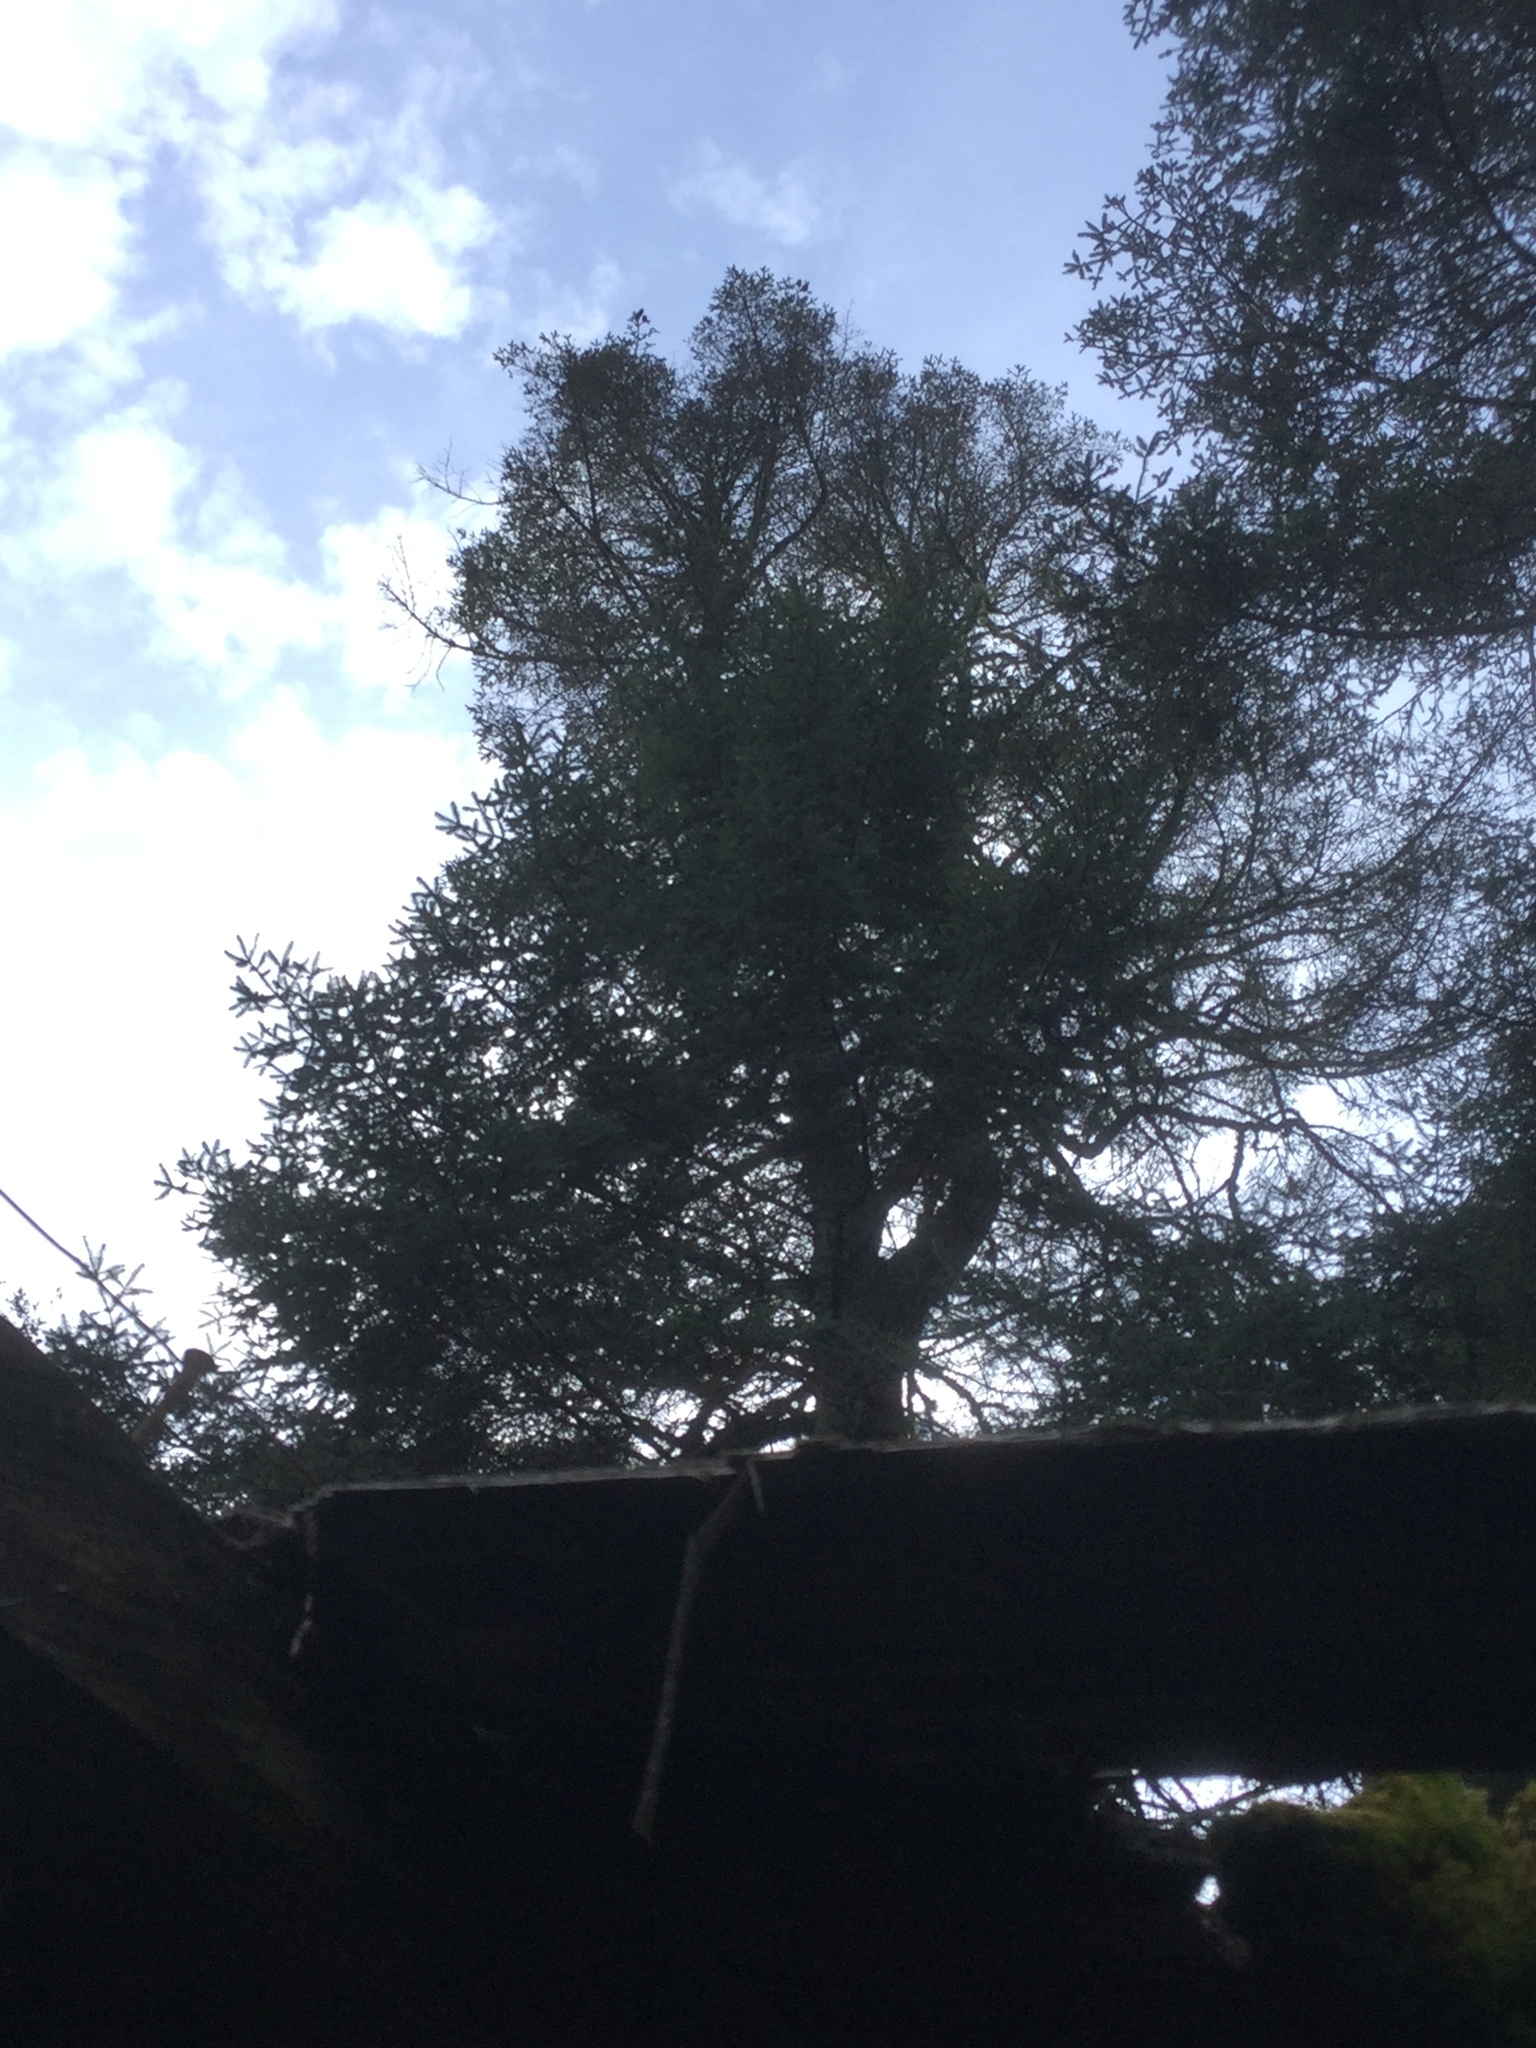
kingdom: Plantae
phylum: Tracheophyta
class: Pinopsida
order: Pinales
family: Pinaceae
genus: Abies
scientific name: Abies religiosa
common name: Sacred fir
